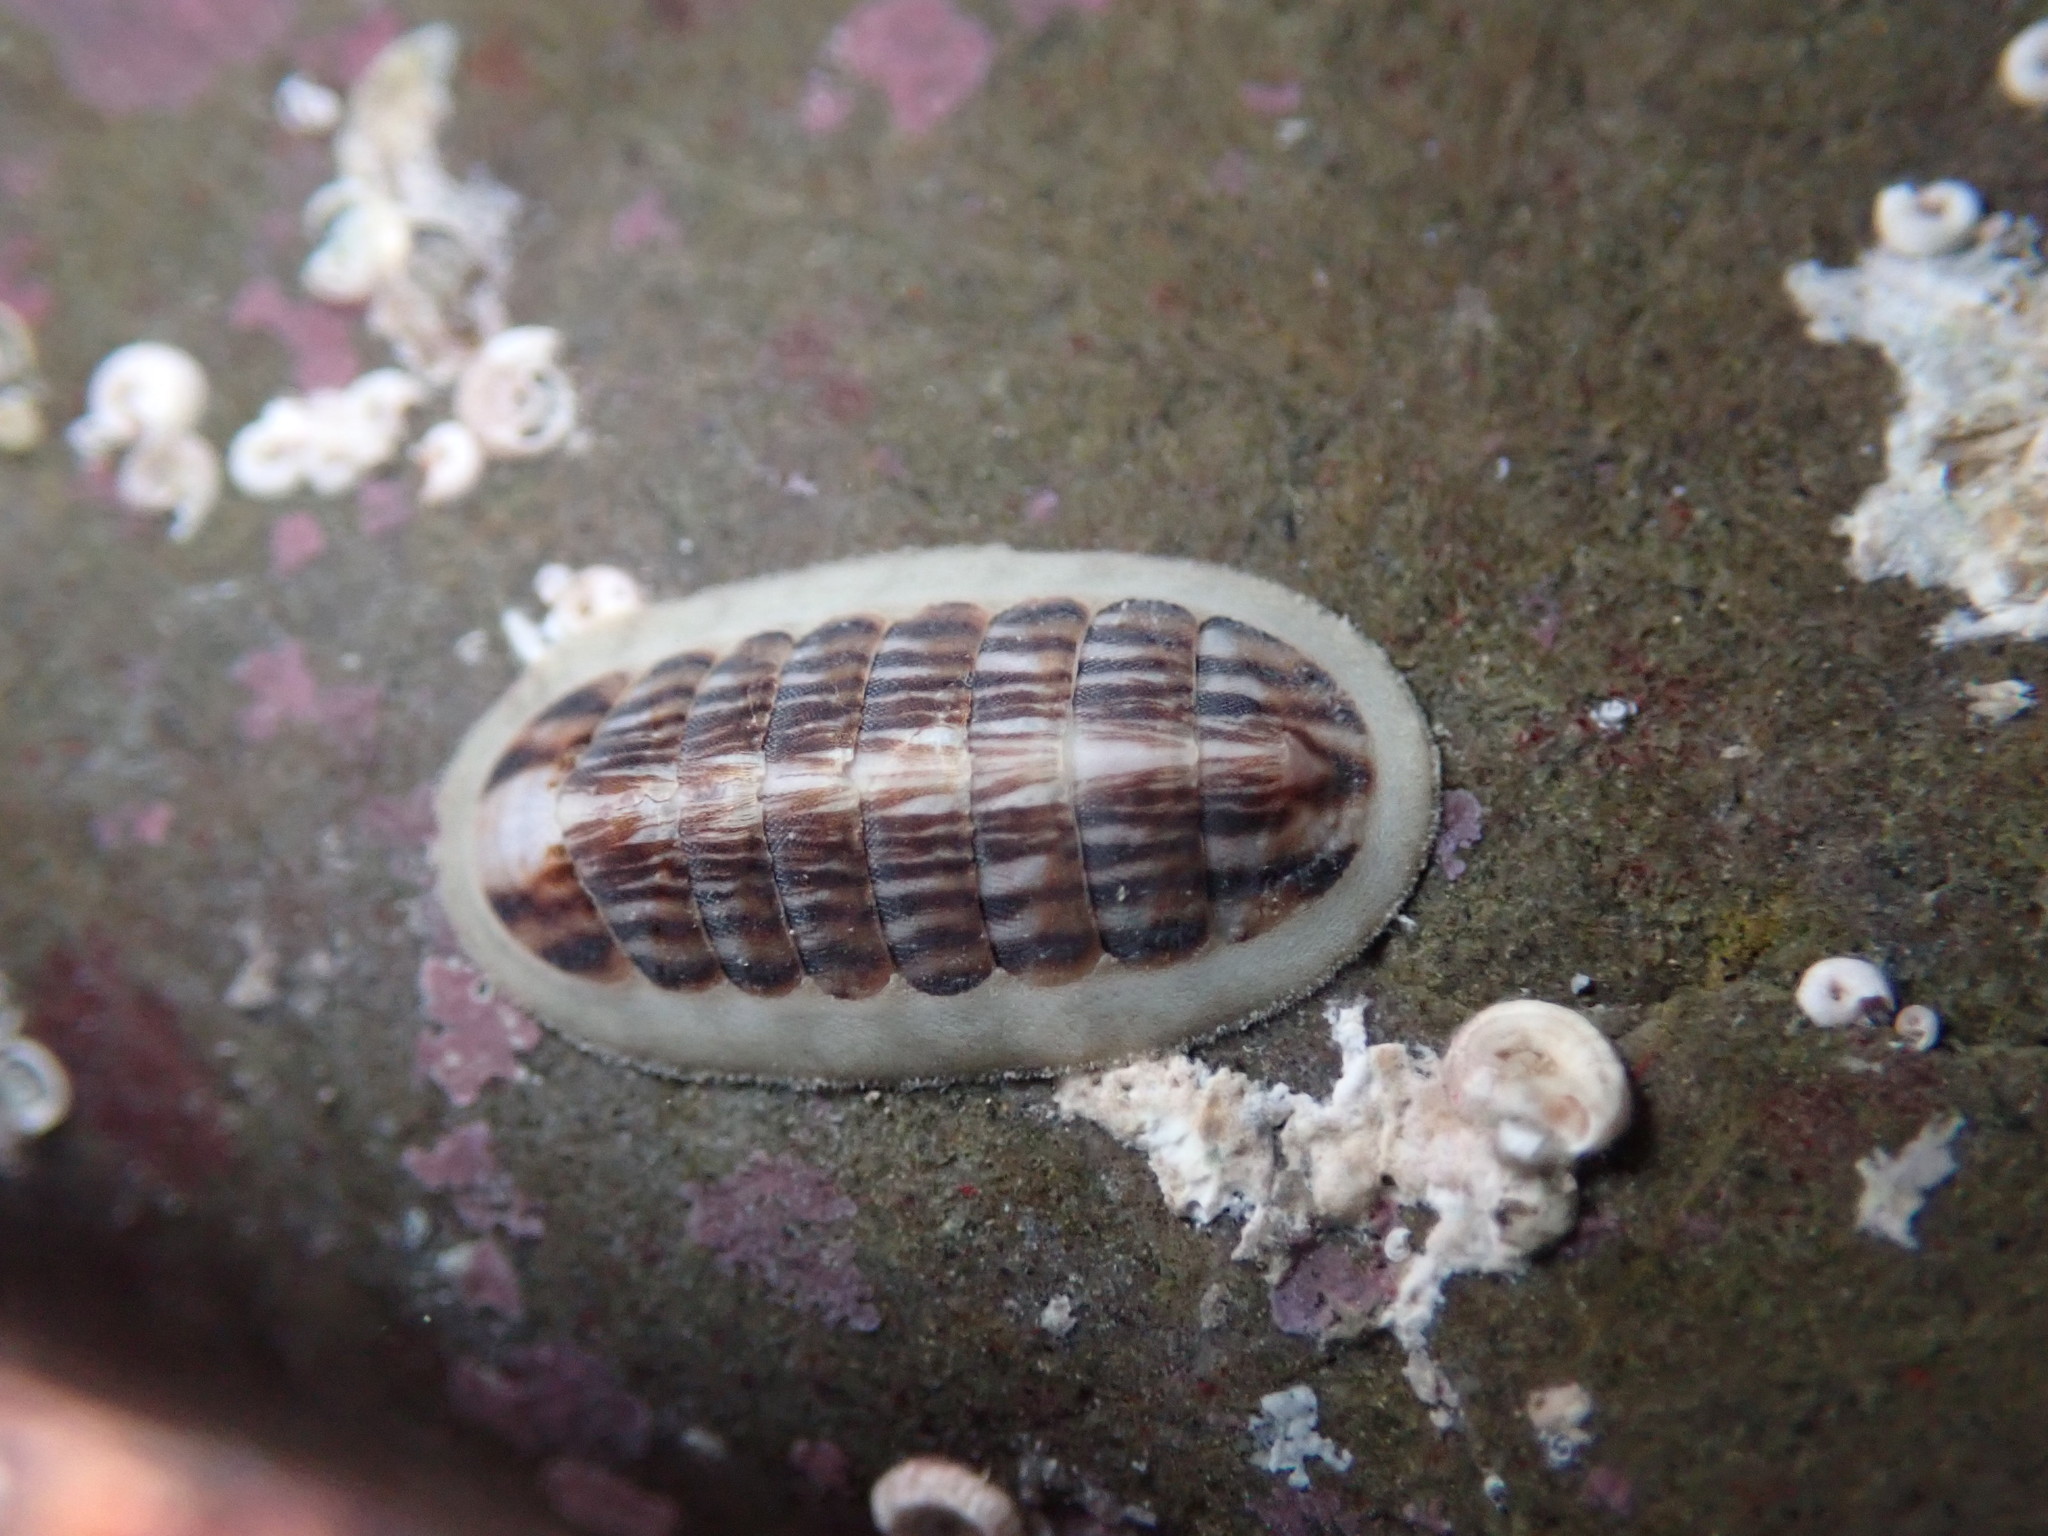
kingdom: Animalia
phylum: Mollusca
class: Polyplacophora
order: Chitonida
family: Ischnochitonidae
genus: Ischnochiton
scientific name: Ischnochiton maorianus
